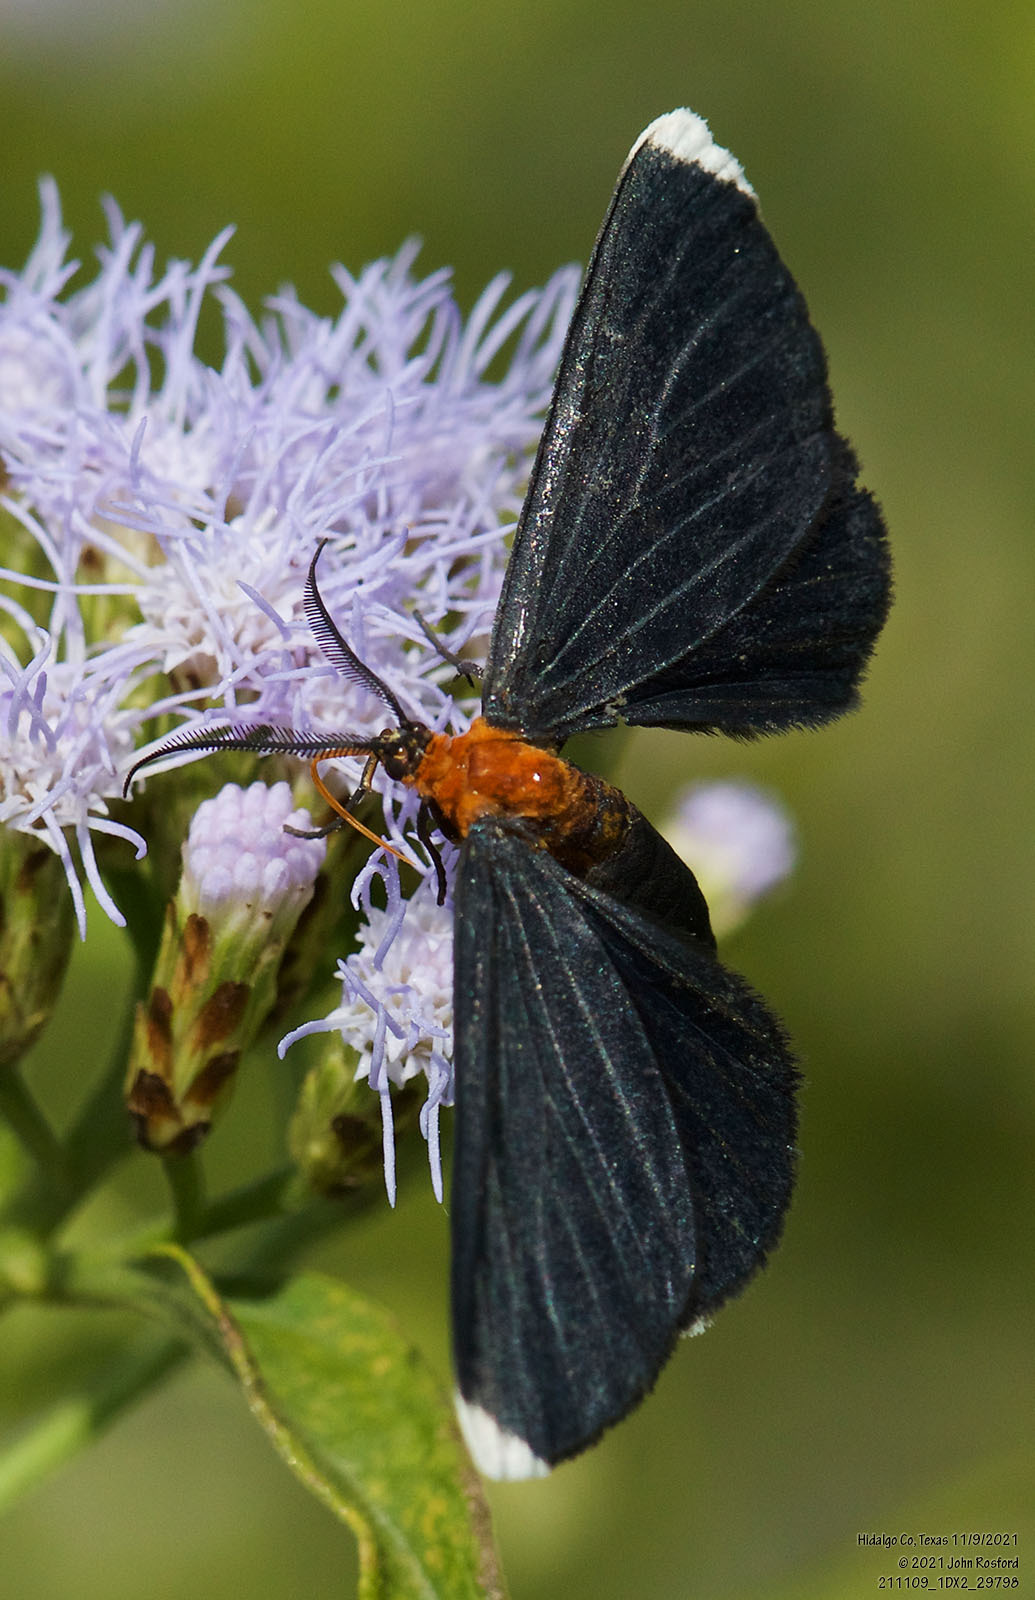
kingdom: Animalia
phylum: Arthropoda
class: Insecta
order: Lepidoptera
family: Geometridae
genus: Melanchroia
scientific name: Melanchroia chephise
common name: White-tipped black
